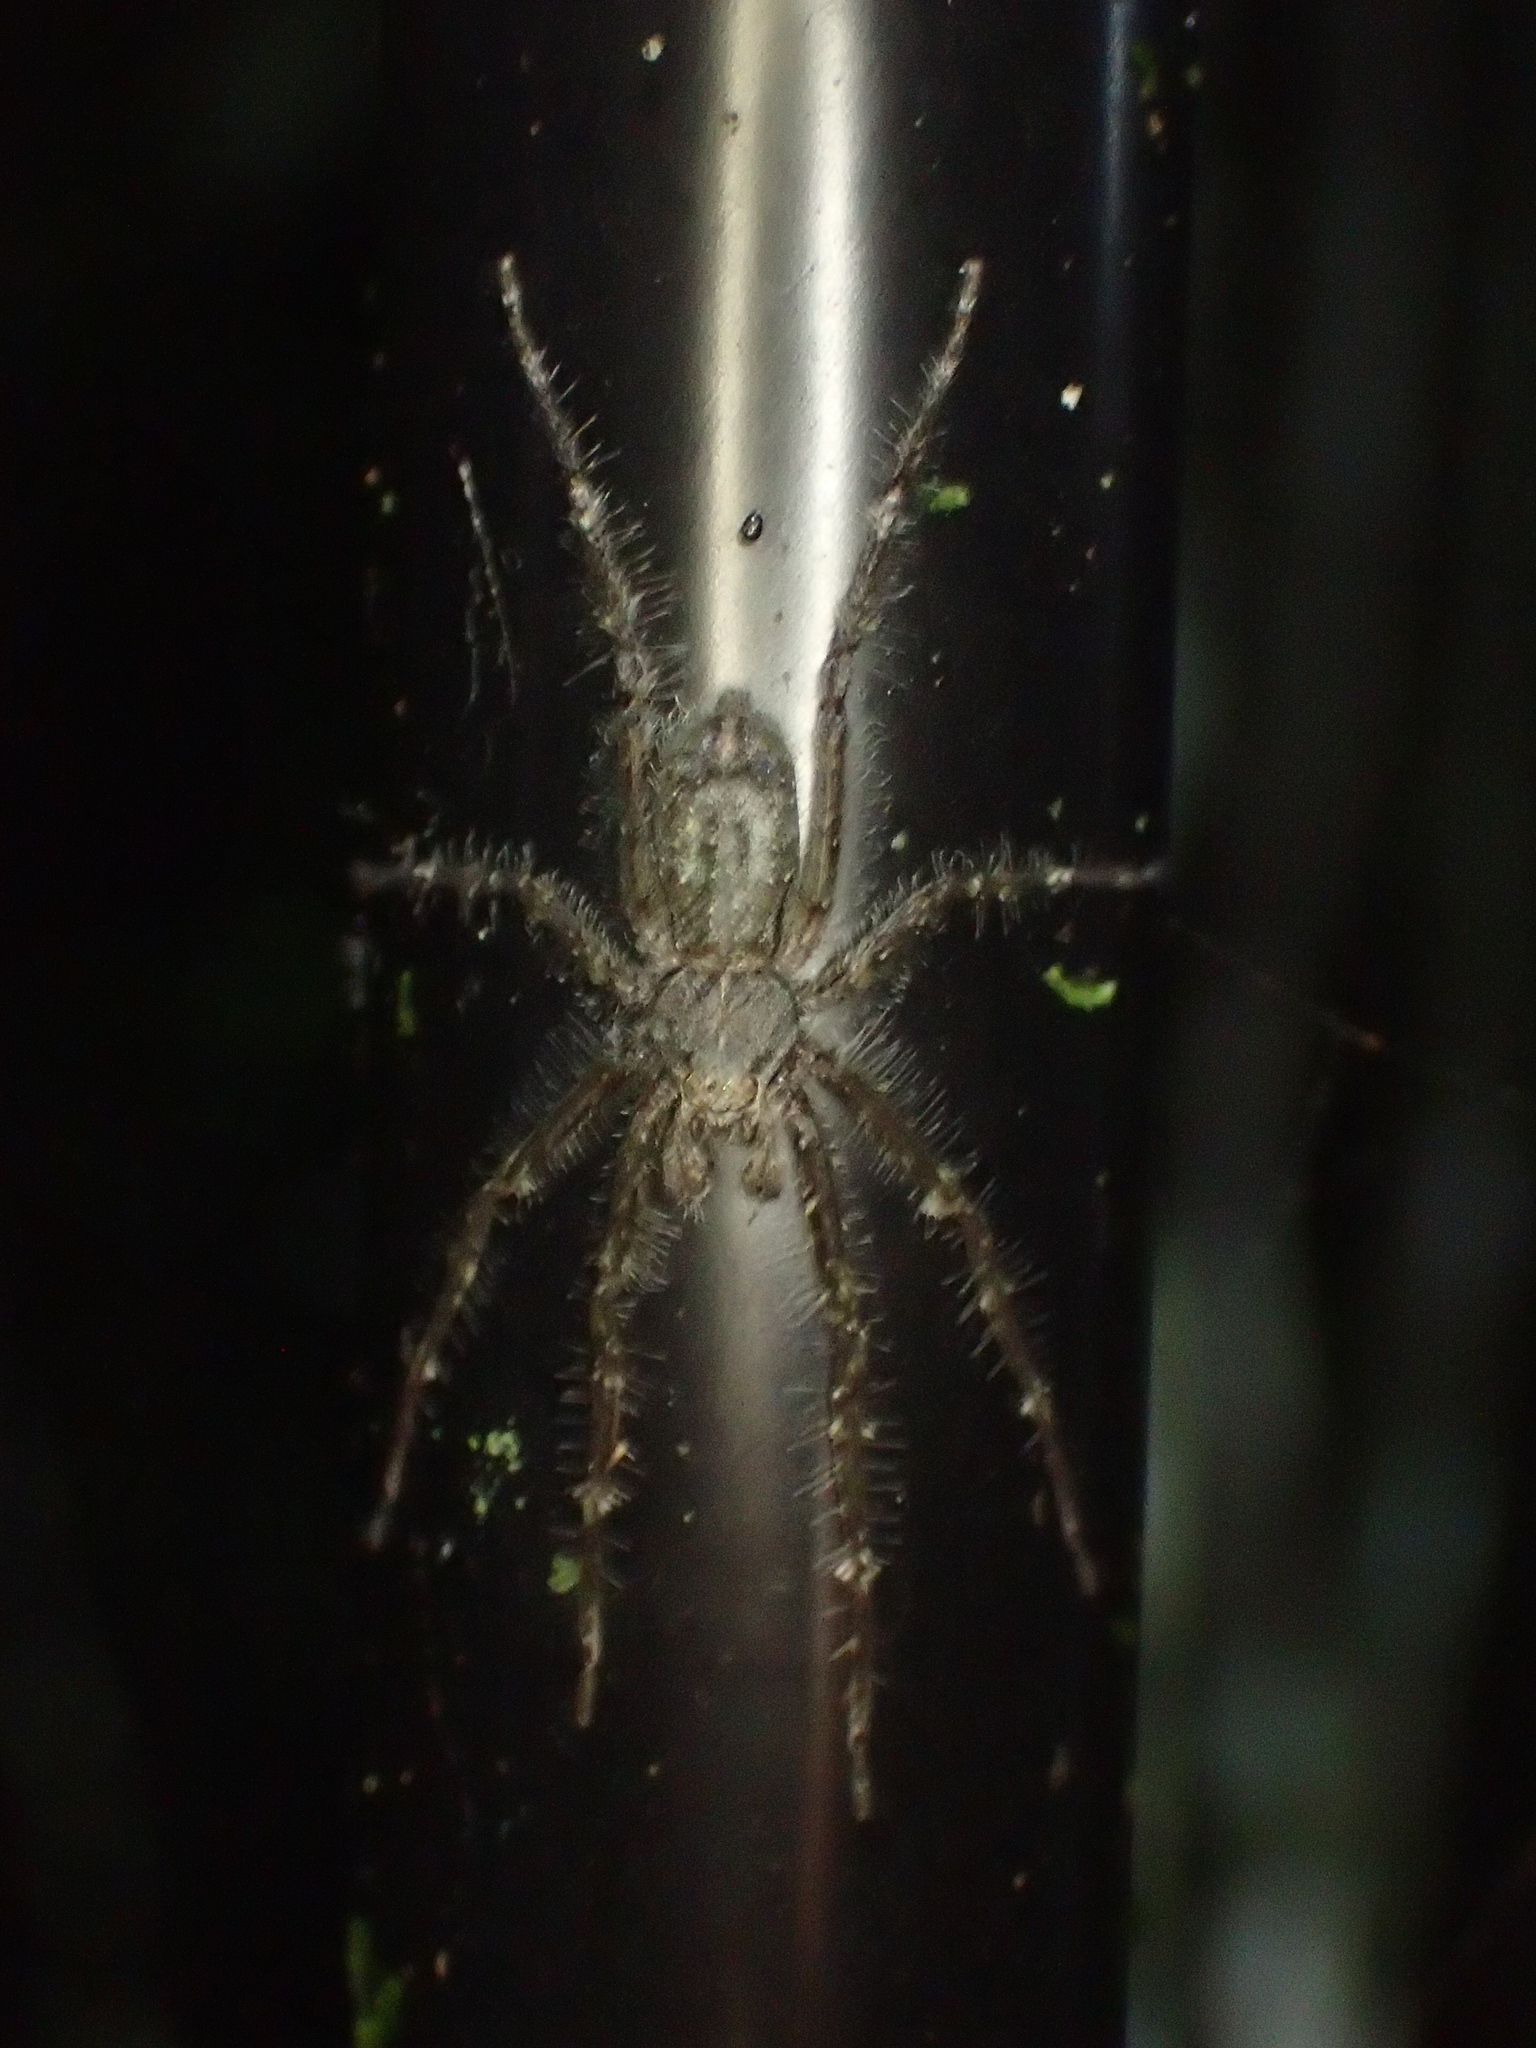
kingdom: Animalia
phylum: Arthropoda
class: Arachnida
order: Araneae
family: Sparassidae
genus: Pandercetes
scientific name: Pandercetes gracilis
